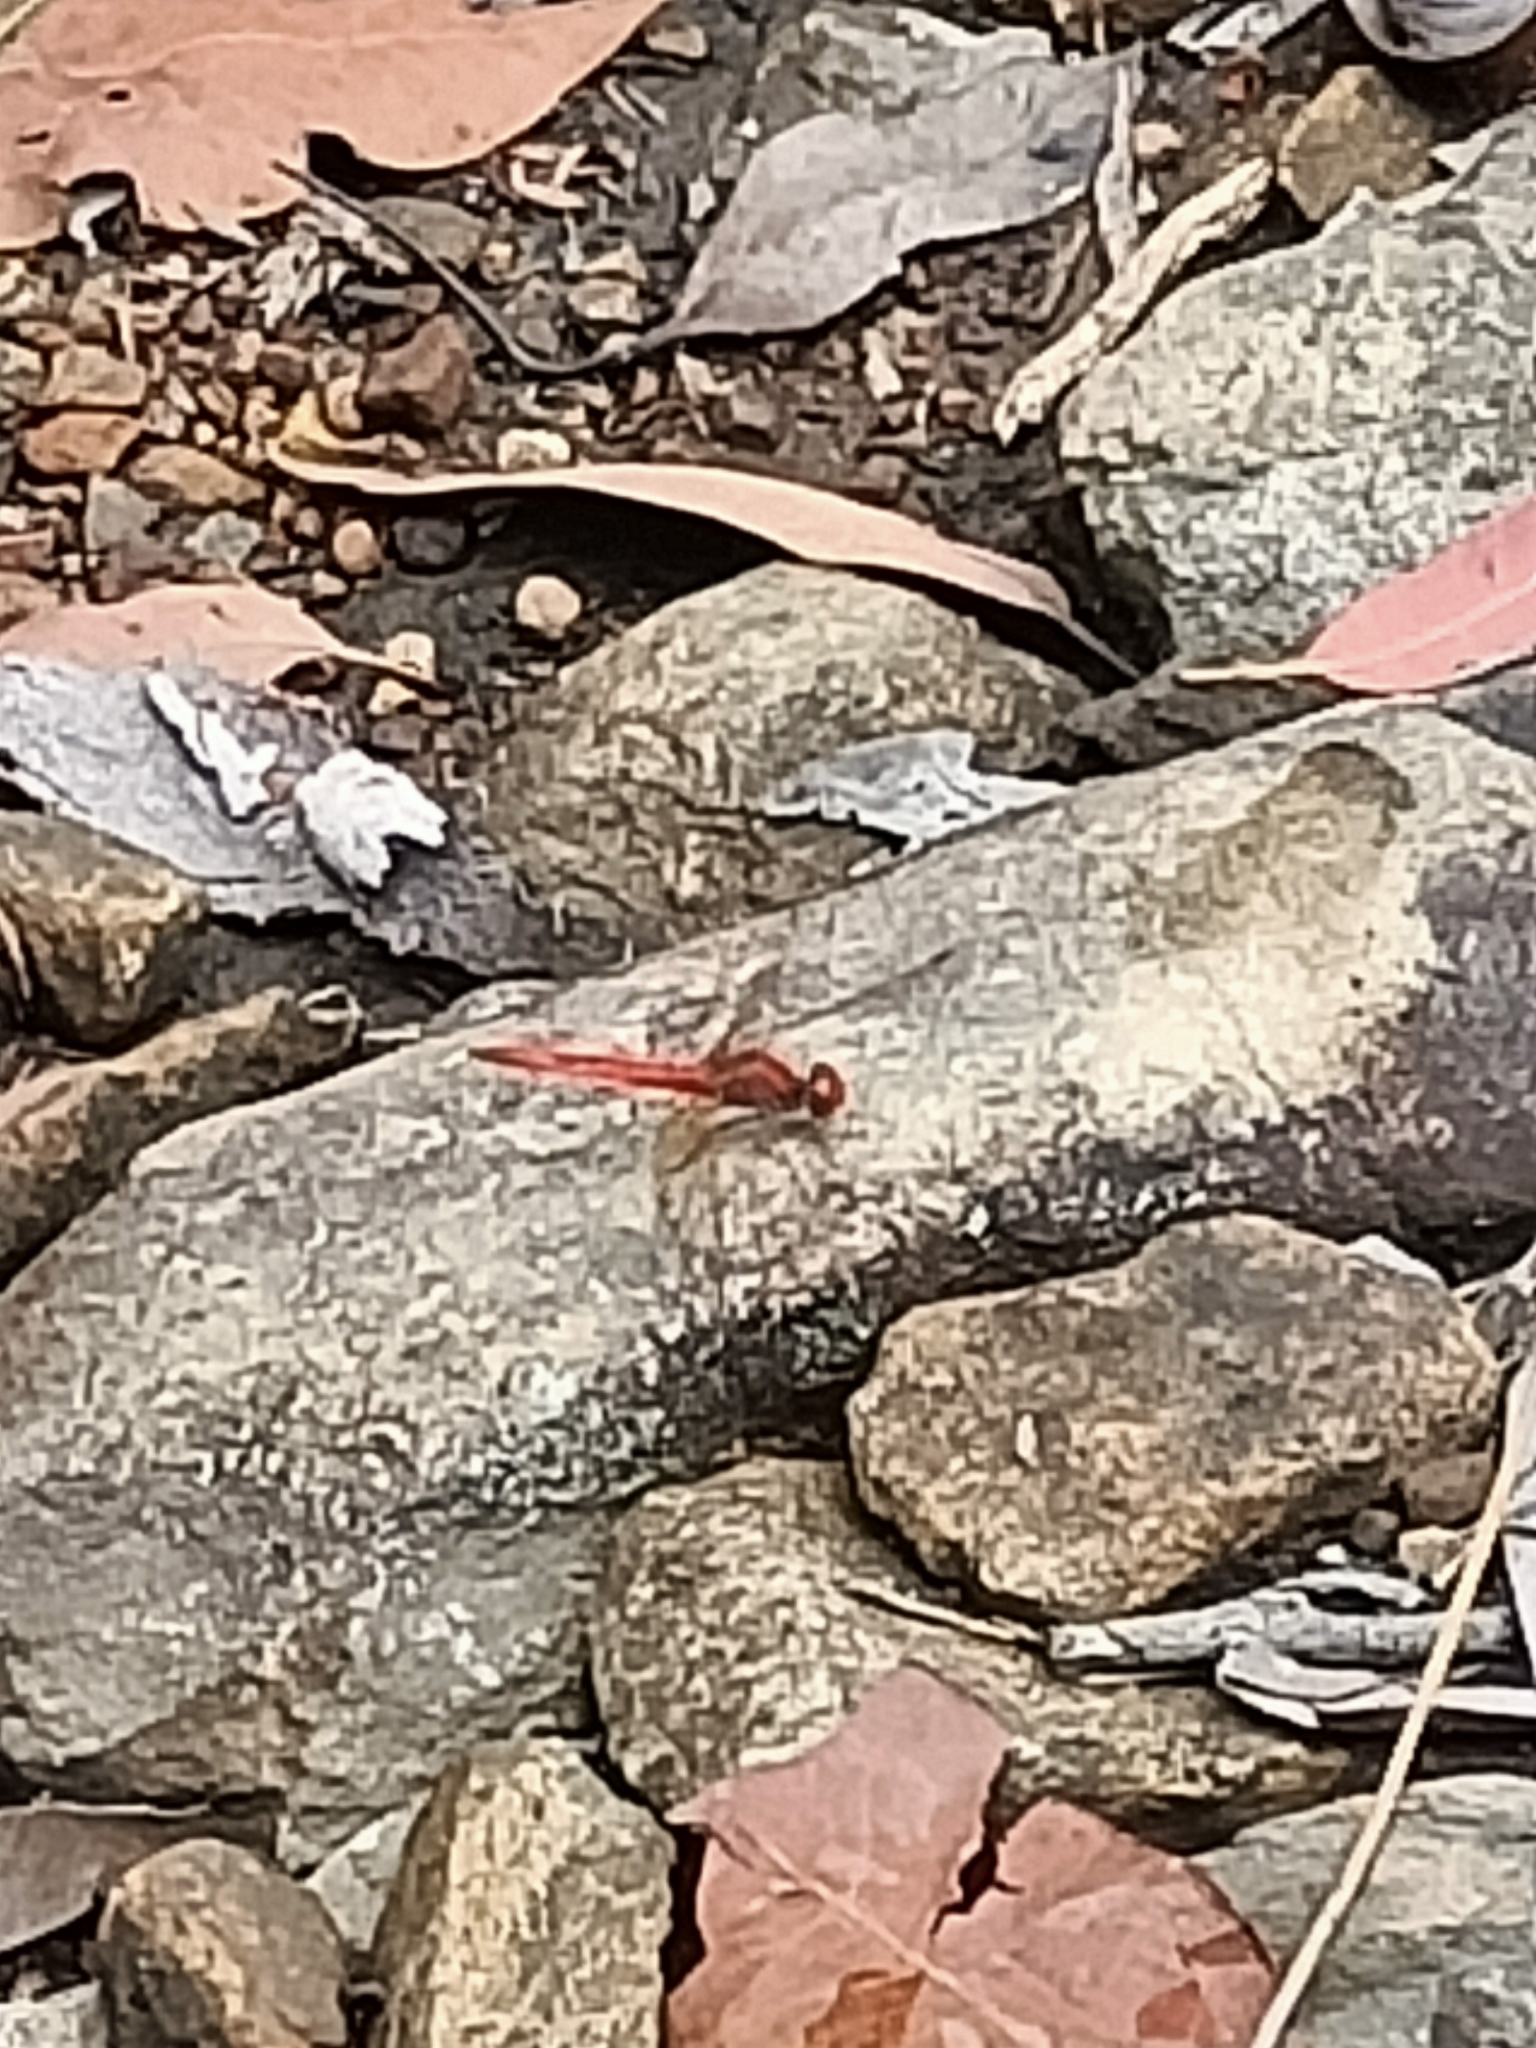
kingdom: Animalia
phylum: Arthropoda
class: Insecta
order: Odonata
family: Libellulidae
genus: Diplacodes
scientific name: Diplacodes haematodes
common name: Scarlet percher
